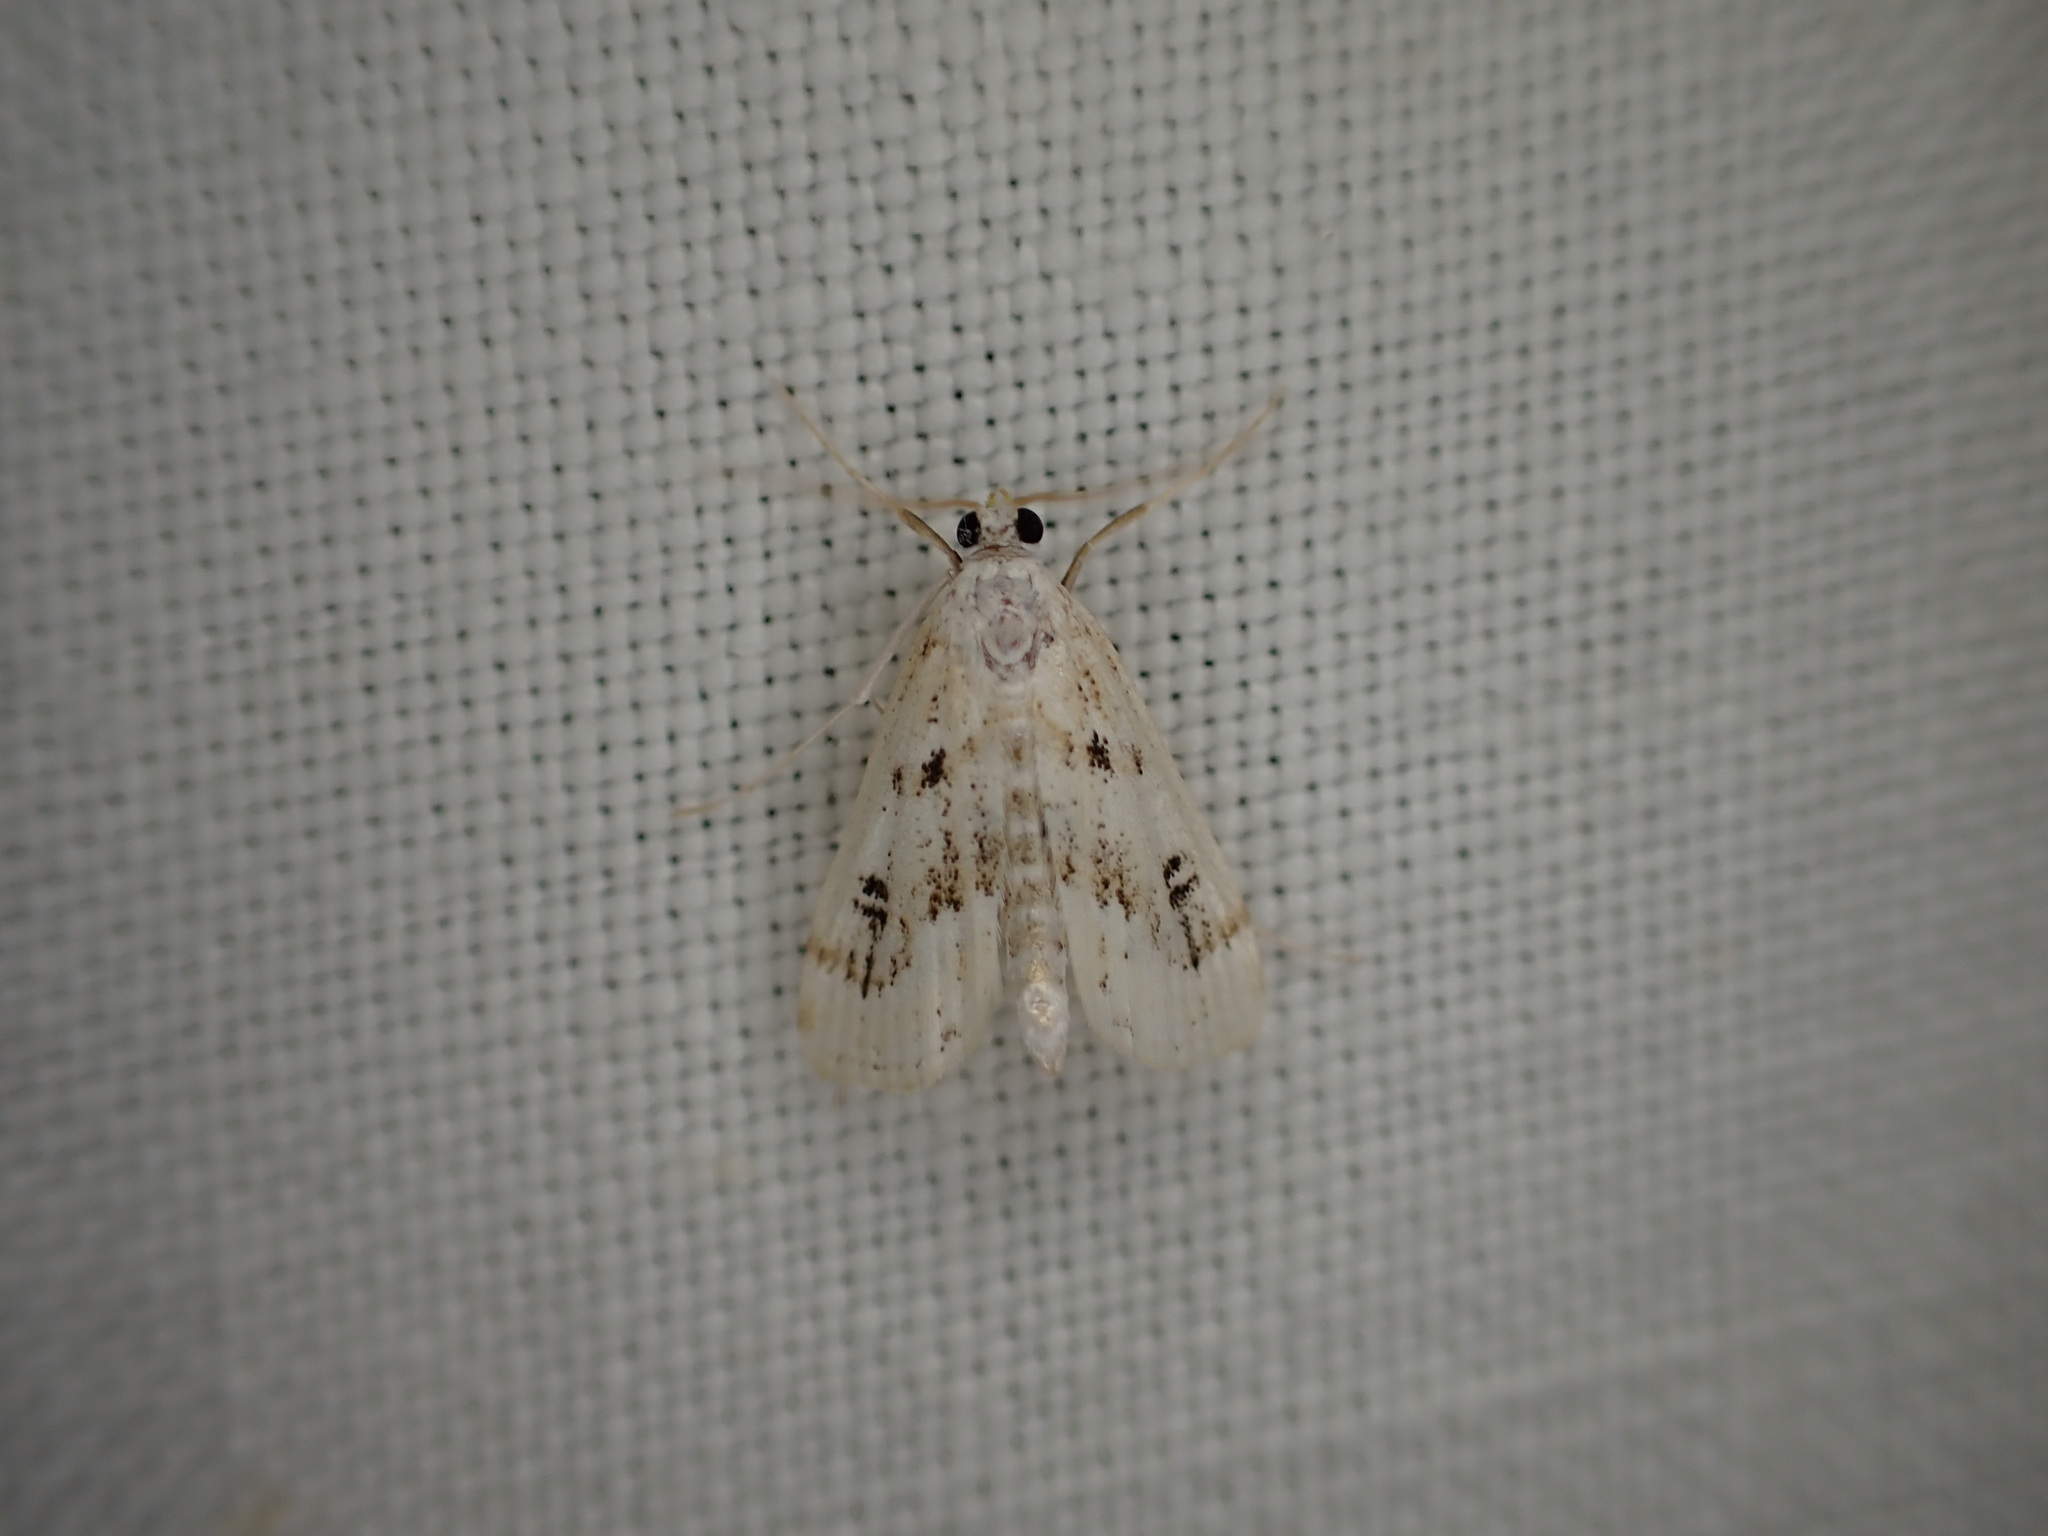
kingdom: Animalia
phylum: Arthropoda
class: Insecta
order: Lepidoptera
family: Crambidae
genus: Parapoynx
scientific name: Parapoynx stratiotata
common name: Ringed china-mark
